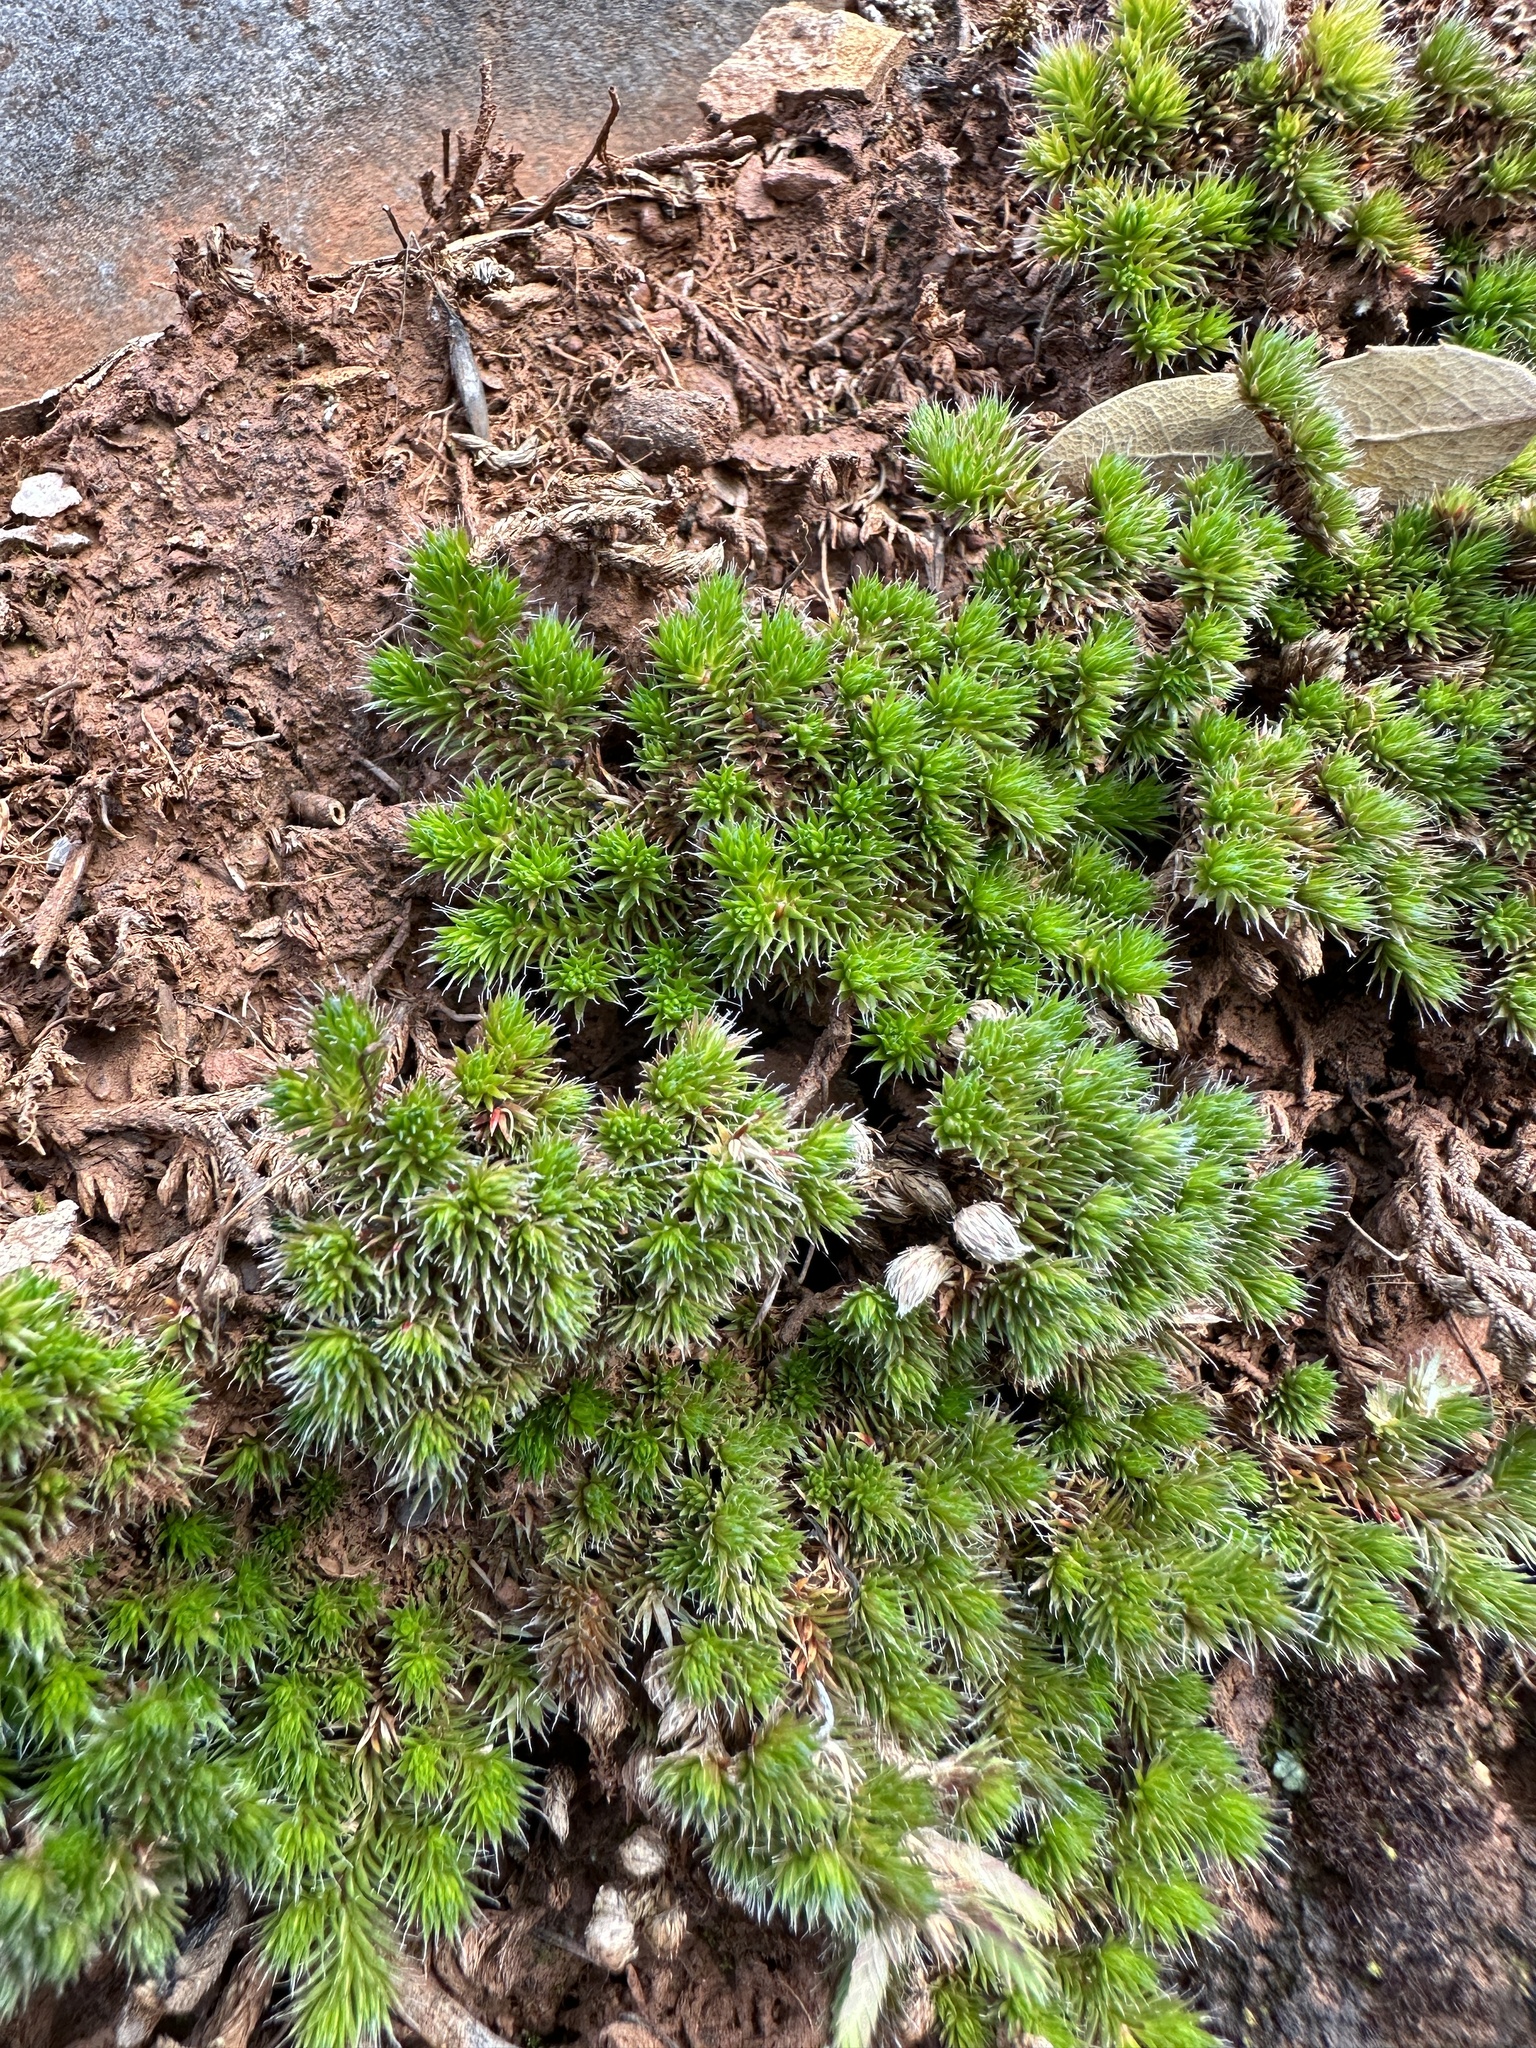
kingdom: Plantae
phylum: Tracheophyta
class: Lycopodiopsida
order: Selaginellales
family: Selaginellaceae
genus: Selaginella
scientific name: Selaginella hansenii
